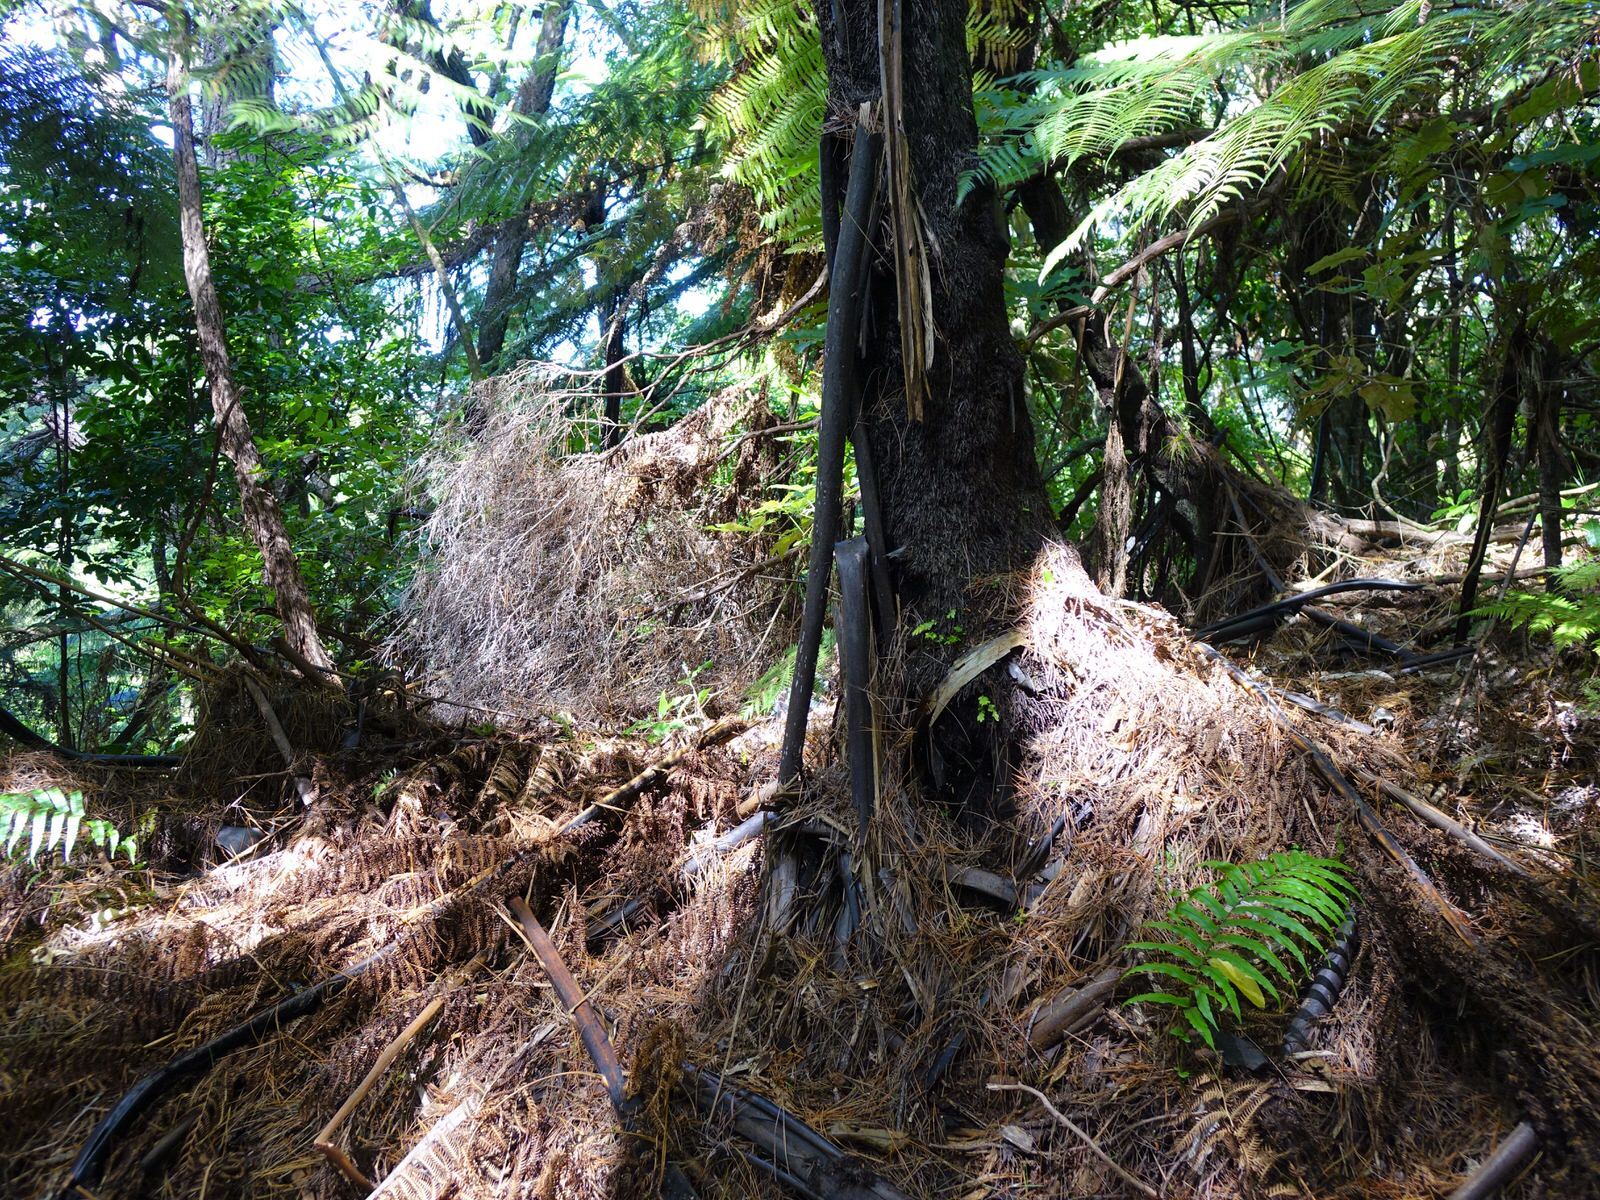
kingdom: Plantae
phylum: Tracheophyta
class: Polypodiopsida
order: Psilotales
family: Psilotaceae
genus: Tmesipteris
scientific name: Tmesipteris lanceolata
